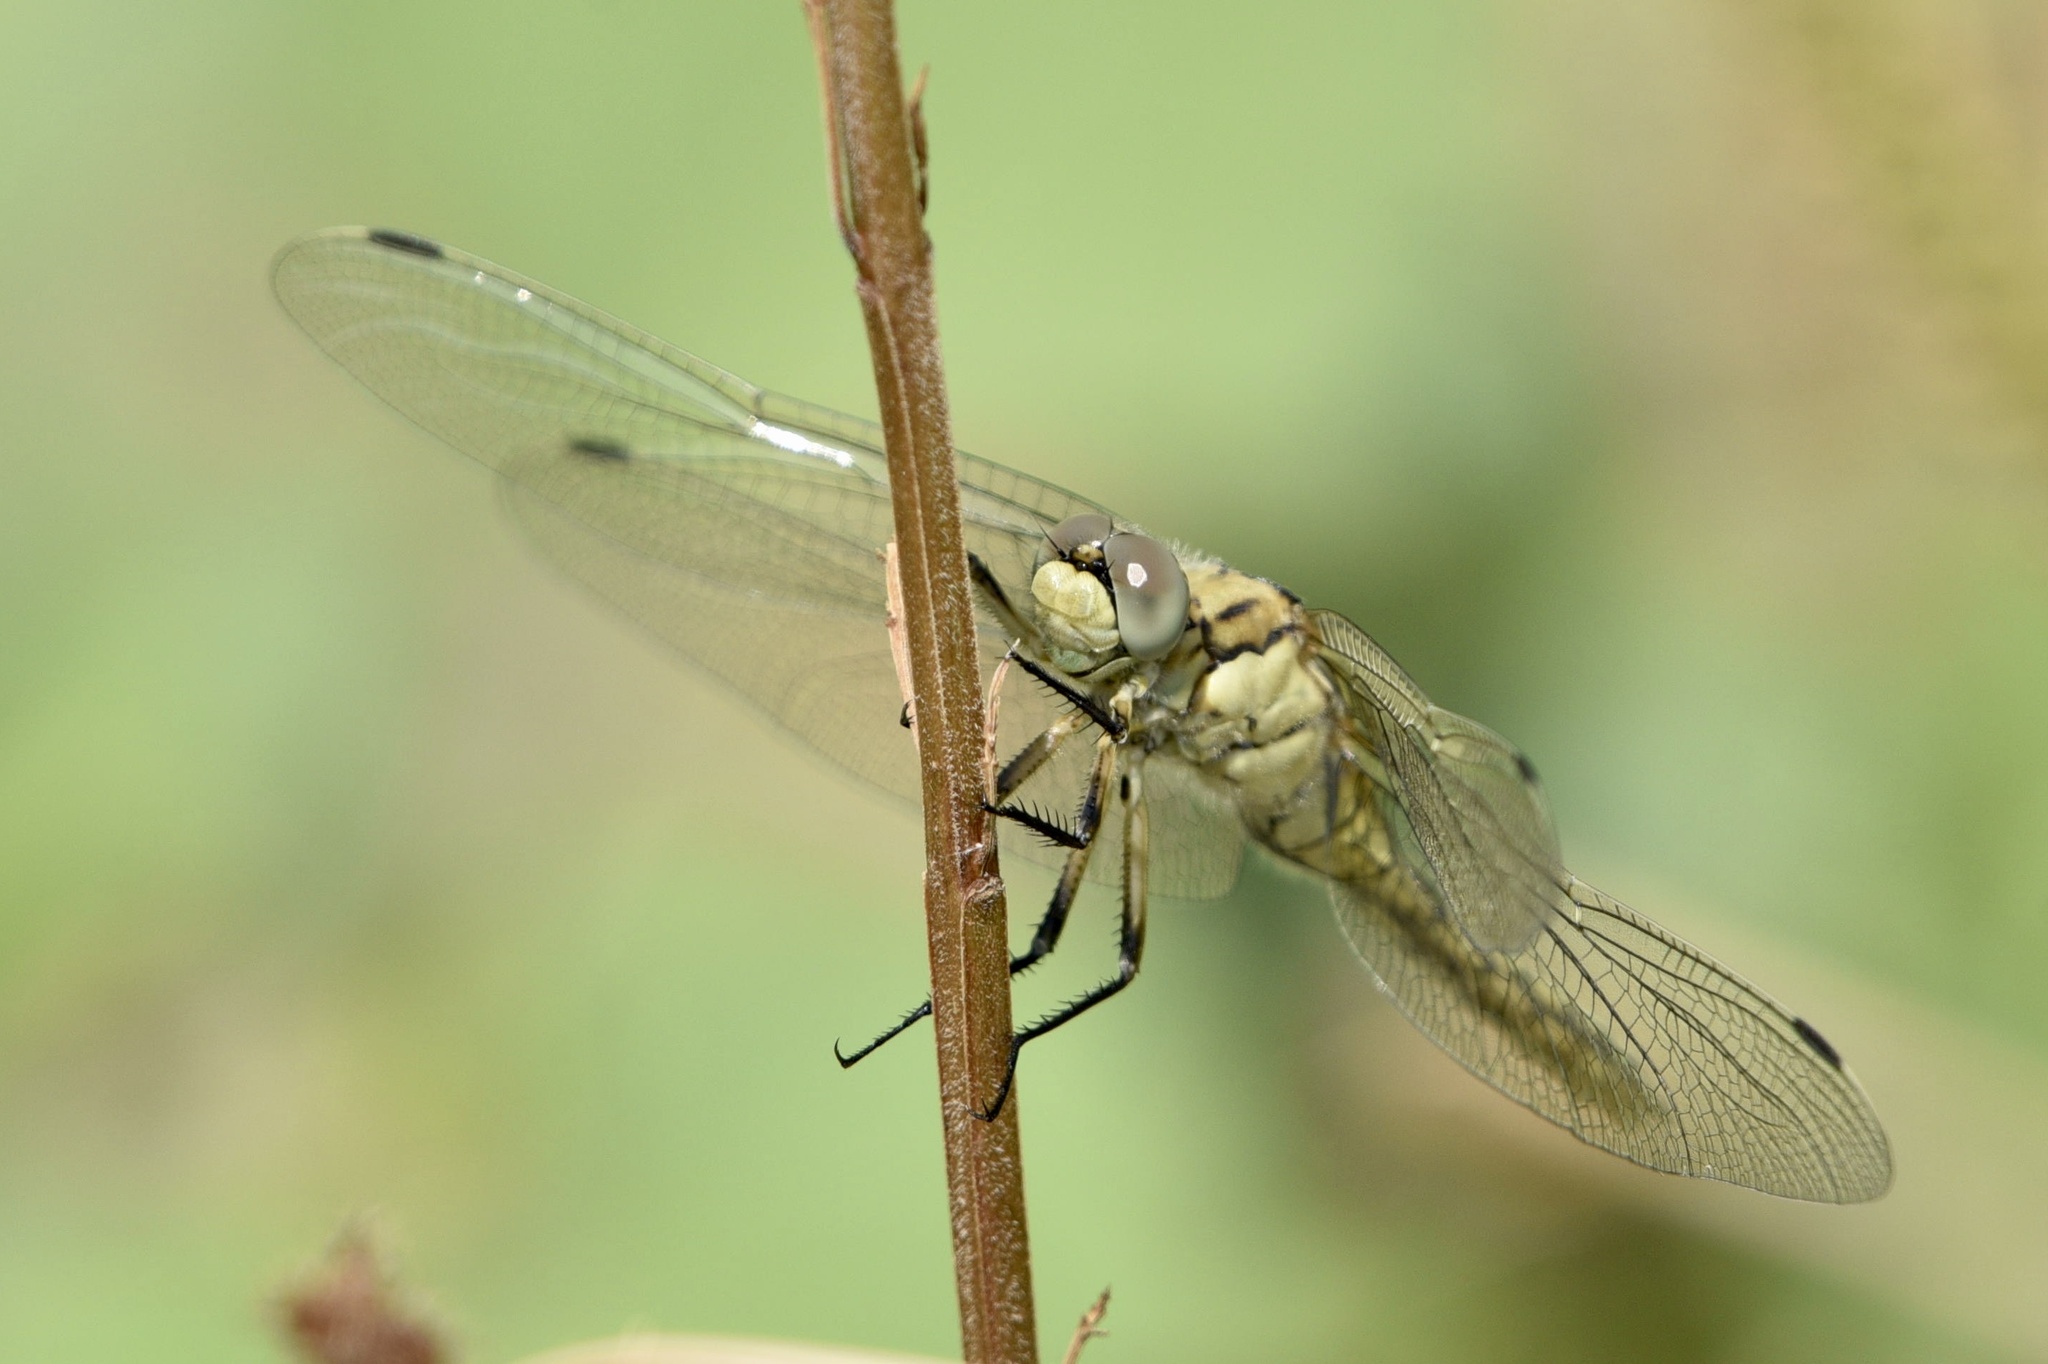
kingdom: Animalia
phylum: Arthropoda
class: Insecta
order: Odonata
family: Libellulidae
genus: Orthetrum
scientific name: Orthetrum cancellatum
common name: Black-tailed skimmer
